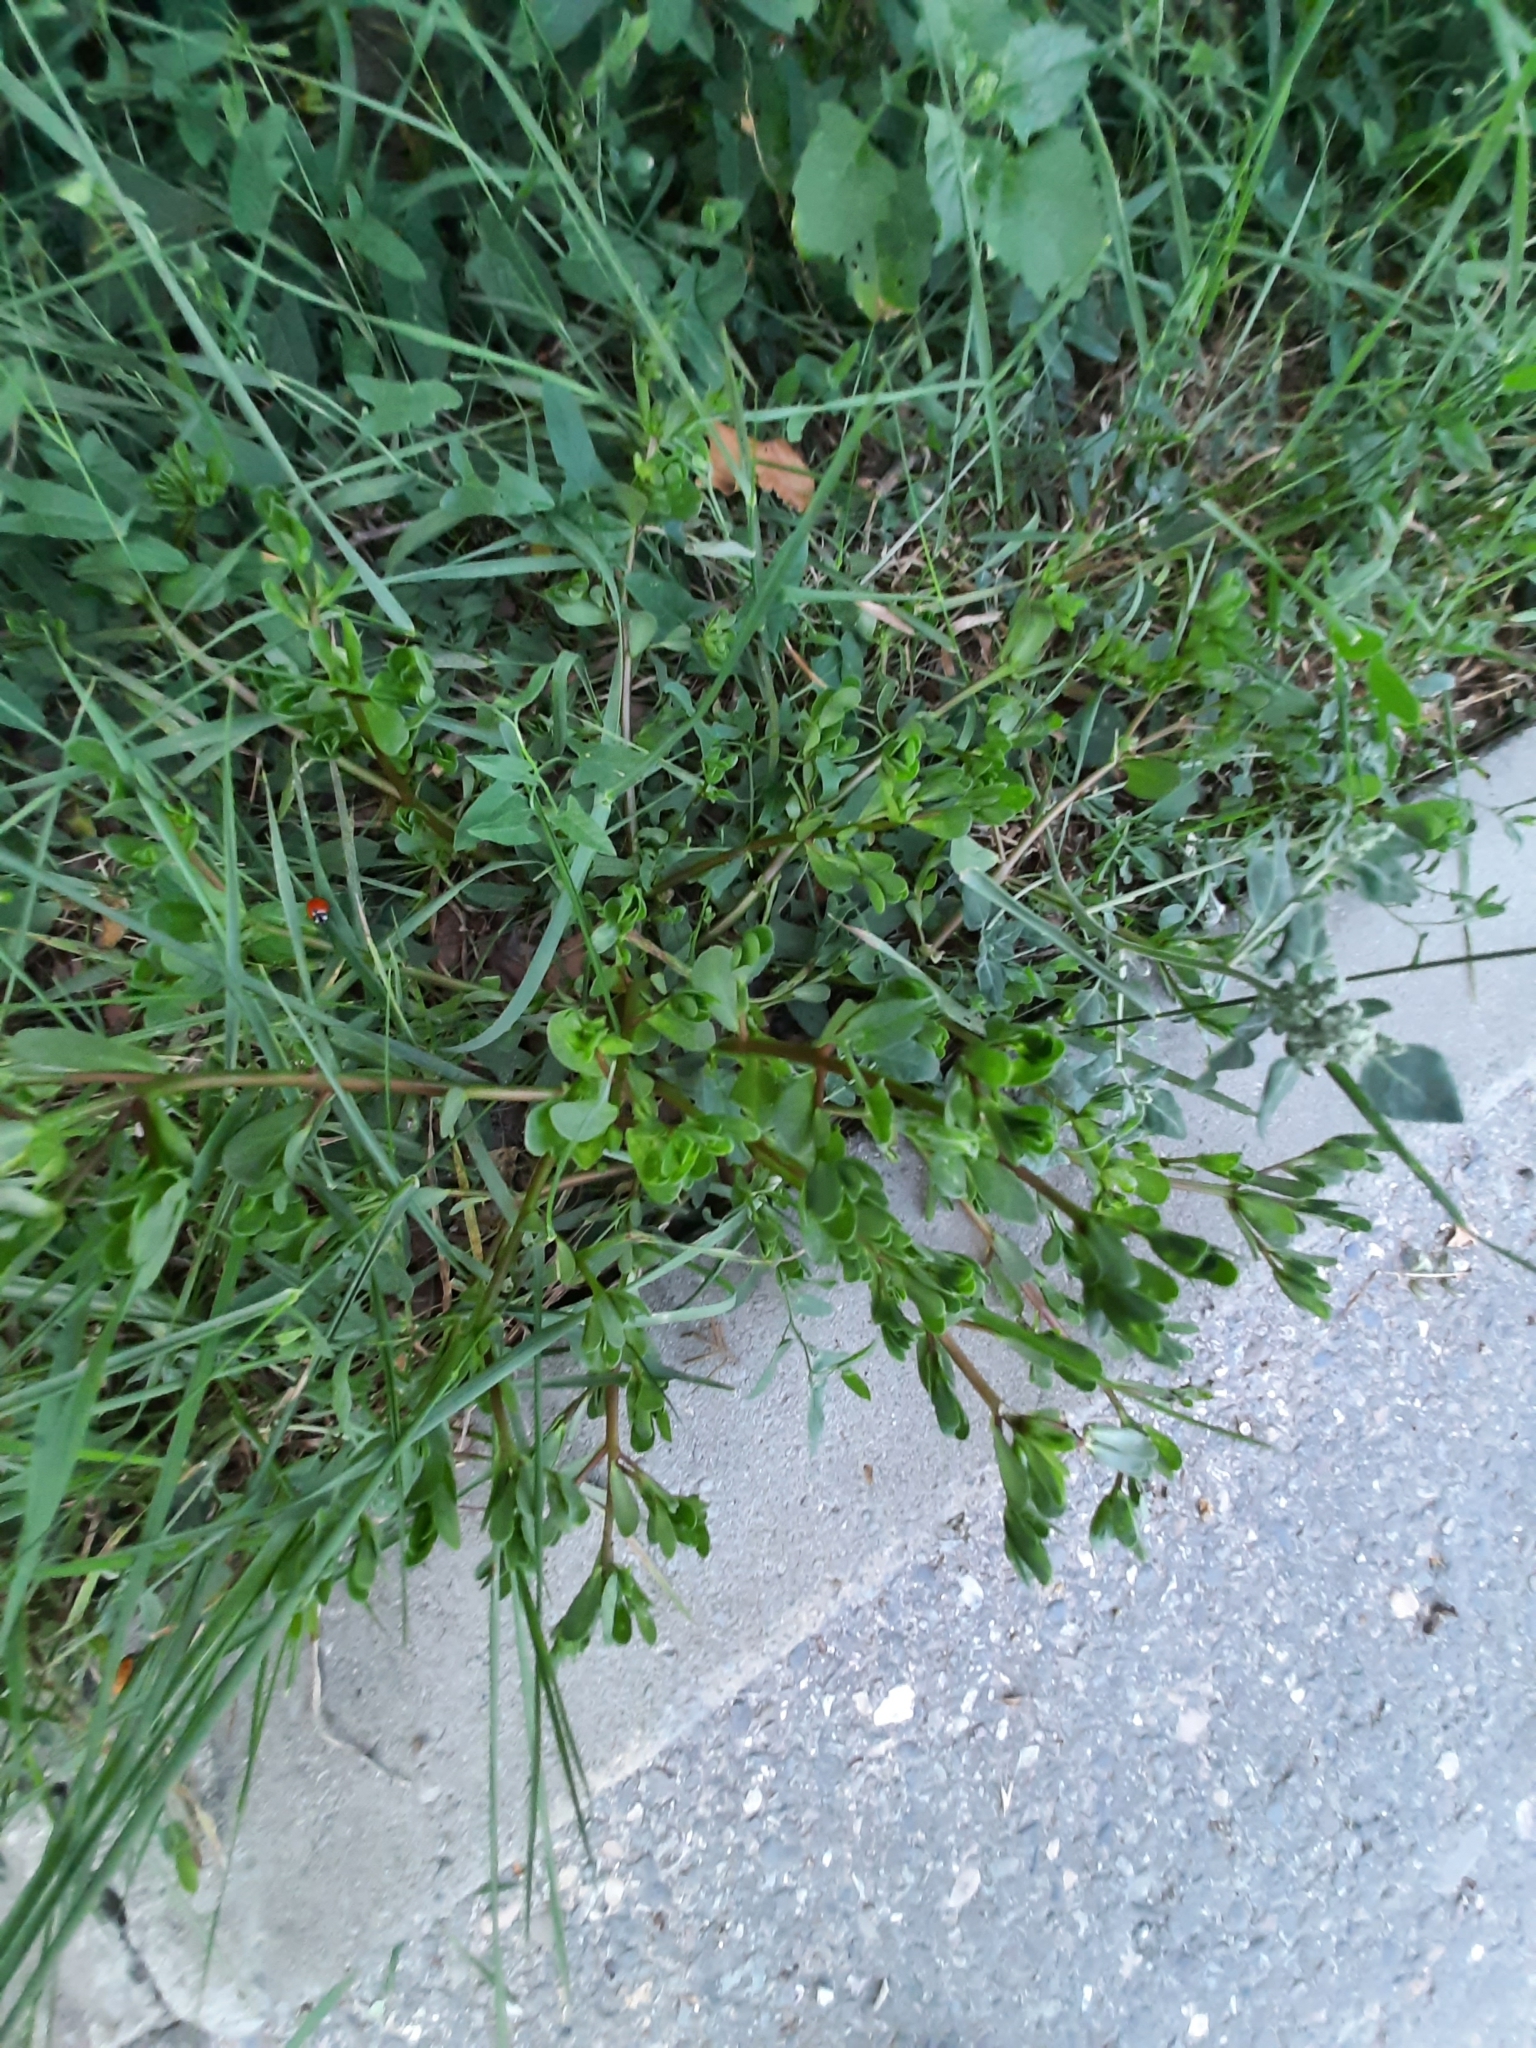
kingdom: Plantae
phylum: Tracheophyta
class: Magnoliopsida
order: Caryophyllales
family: Portulacaceae
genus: Portulaca
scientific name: Portulaca oleracea
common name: Common purslane
